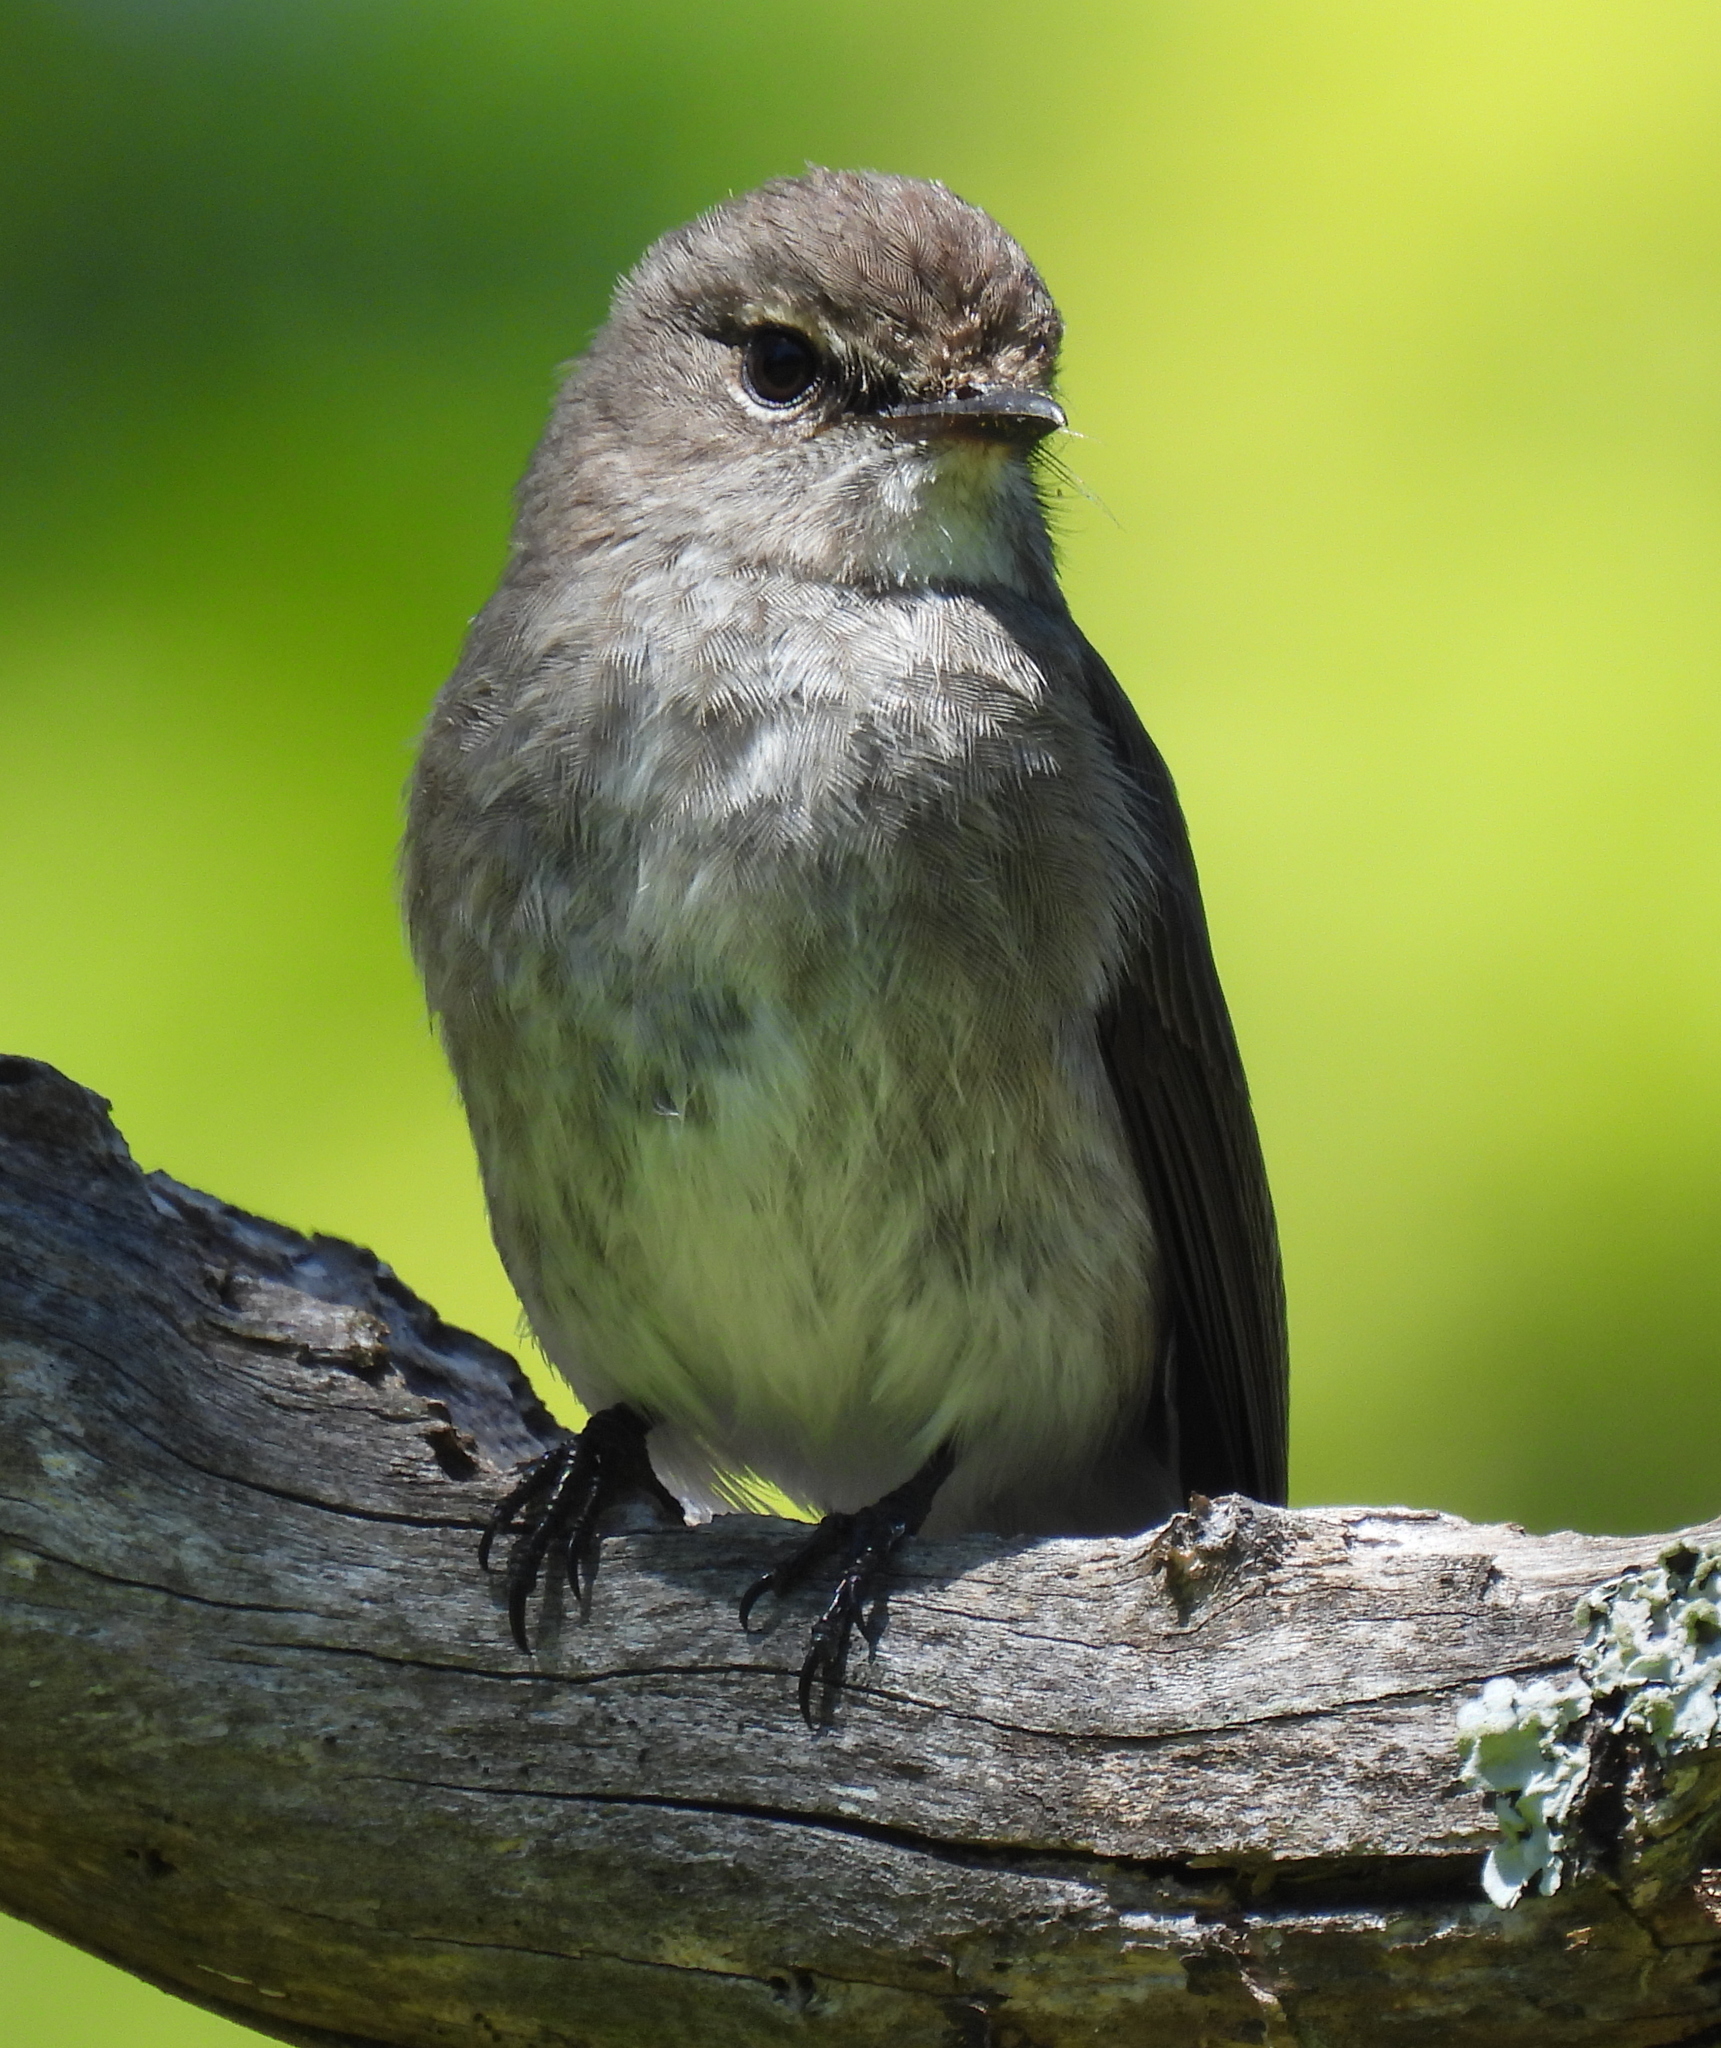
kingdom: Animalia
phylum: Chordata
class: Aves
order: Passeriformes
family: Muscicapidae
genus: Muscicapa
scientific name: Muscicapa adusta
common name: African dusky flycatcher
